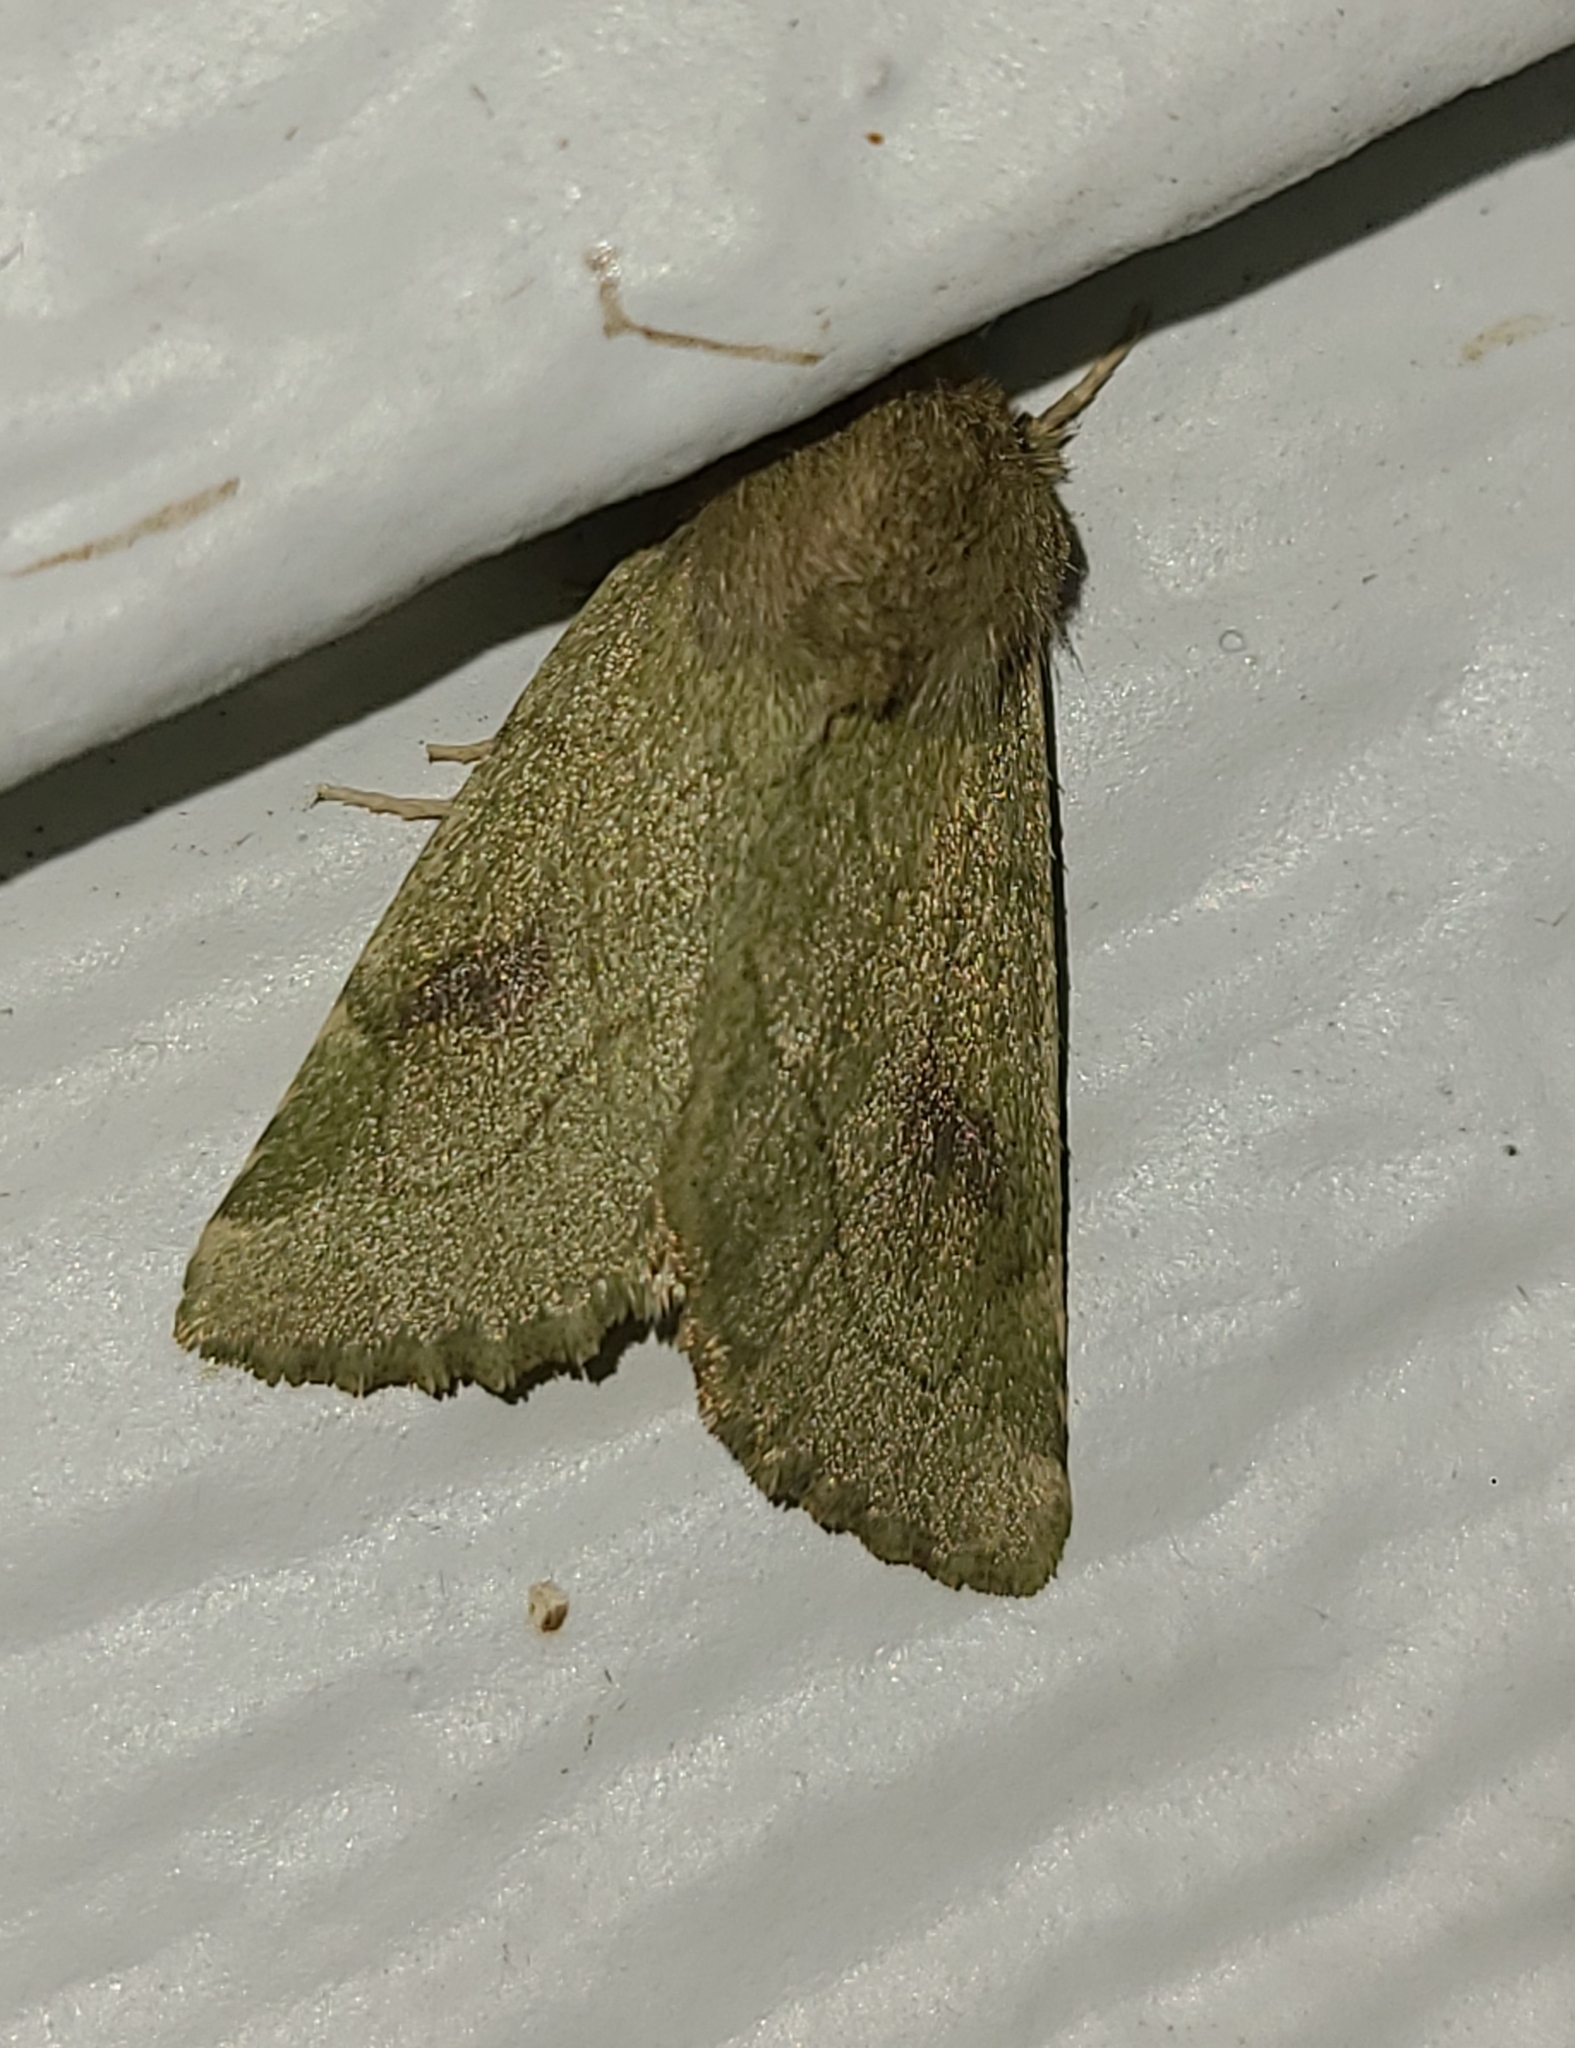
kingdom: Animalia
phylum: Arthropoda
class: Insecta
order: Lepidoptera
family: Noctuidae
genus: Zotheca
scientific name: Zotheca tranquilla
